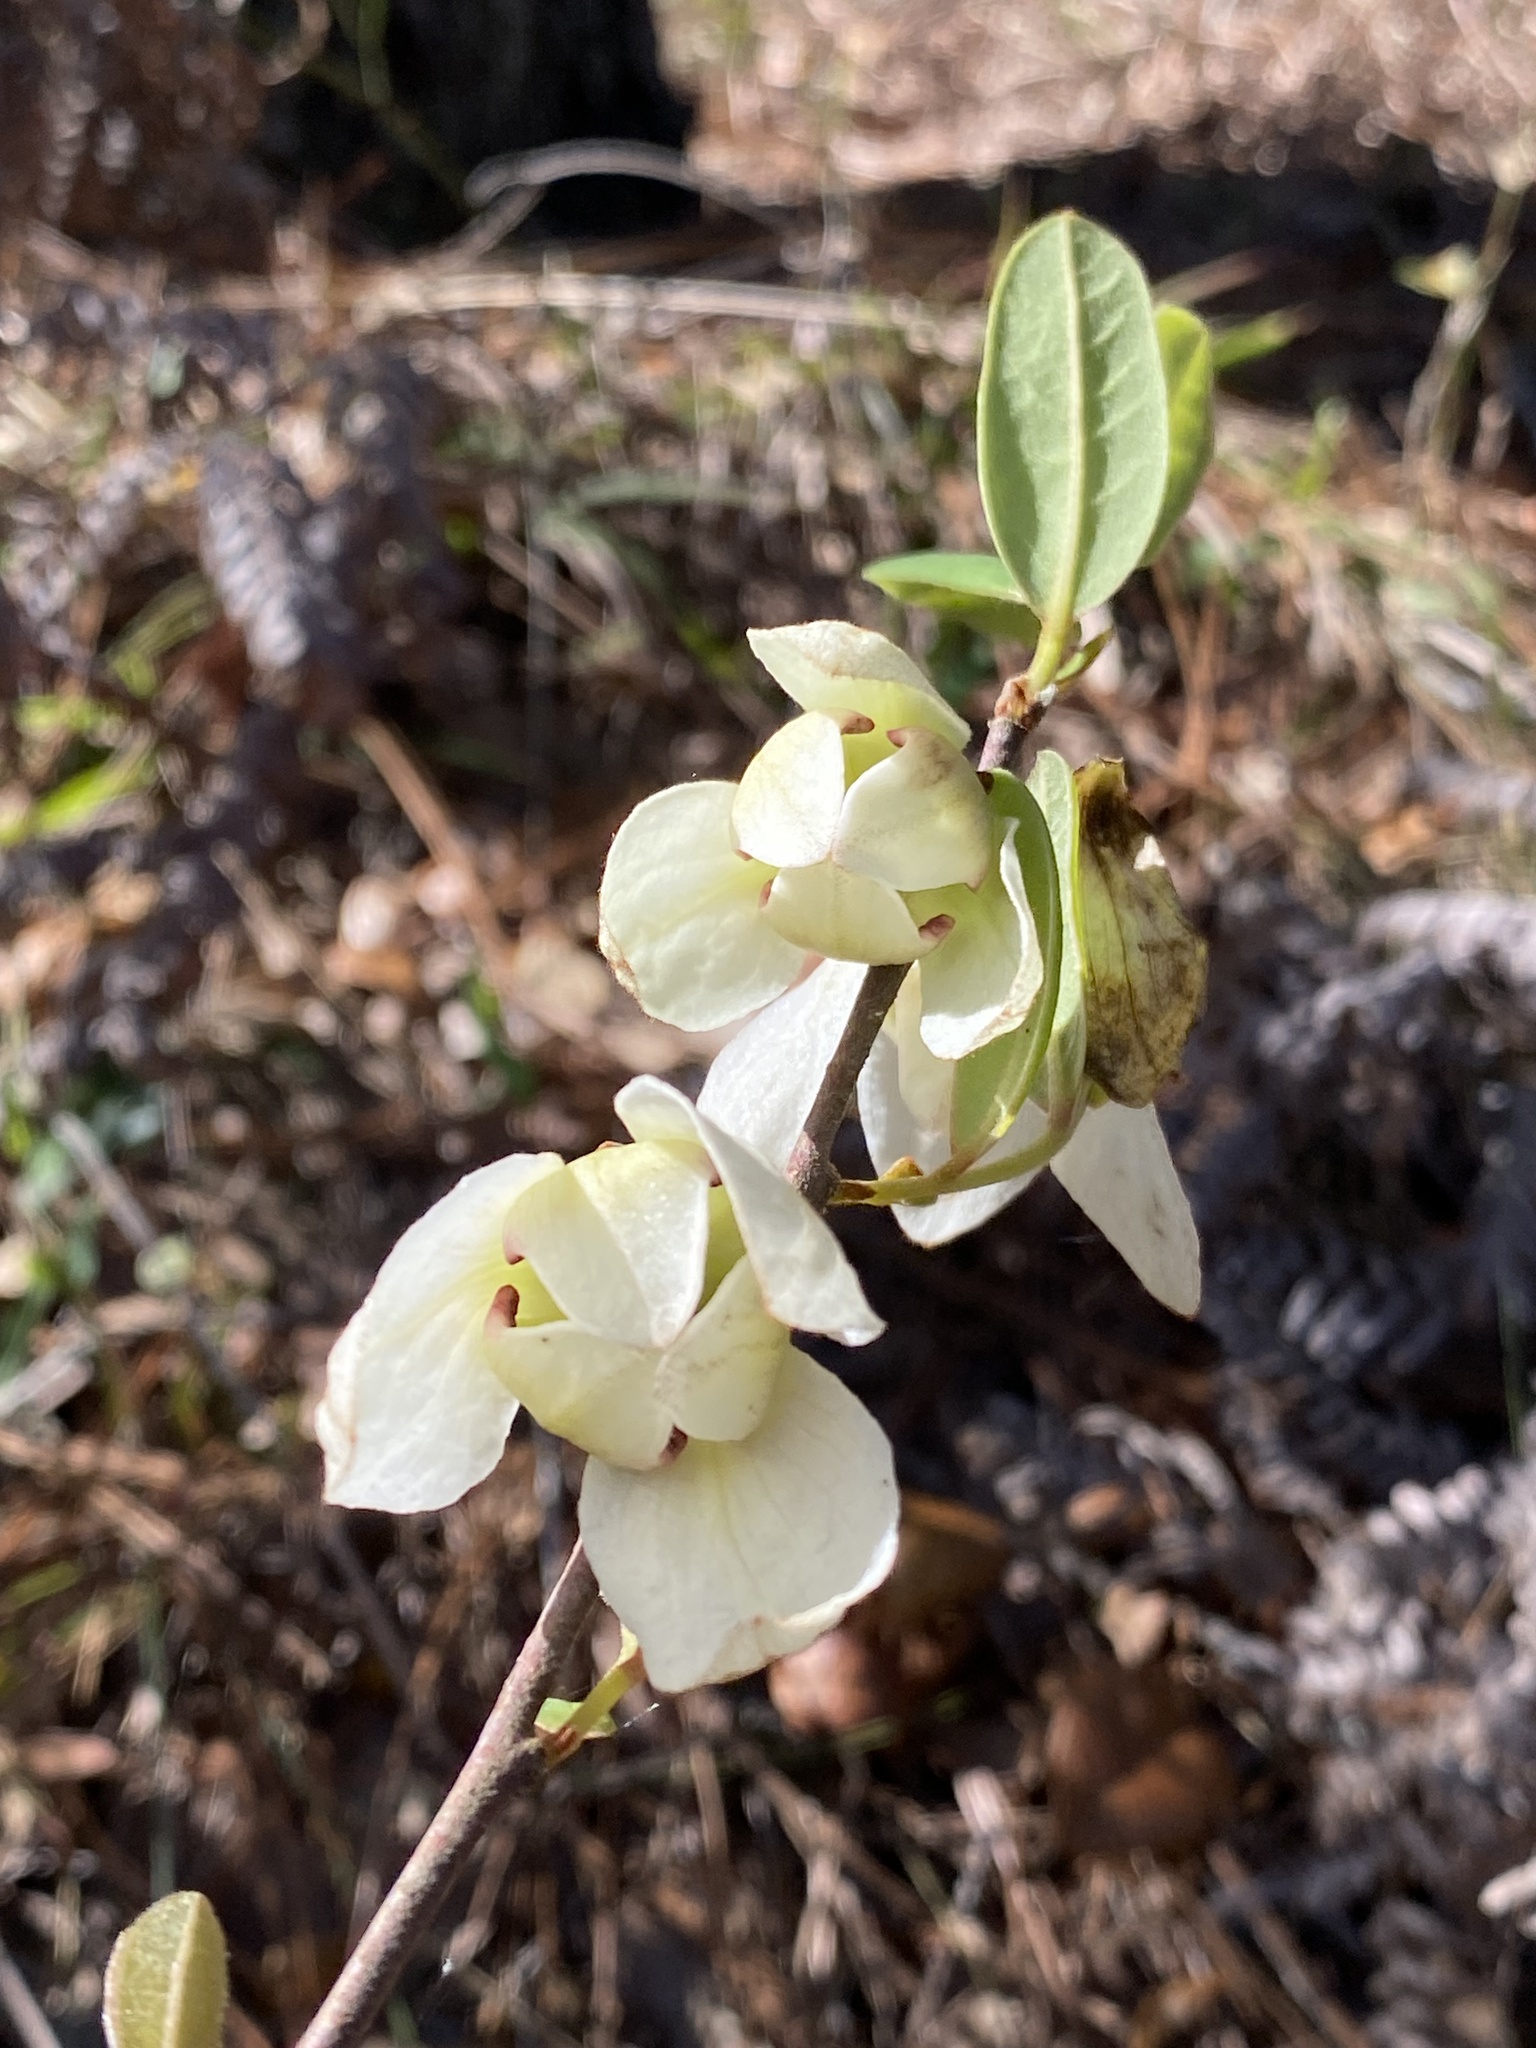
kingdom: Plantae
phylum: Tracheophyta
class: Magnoliopsida
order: Magnoliales
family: Annonaceae
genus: Asimina
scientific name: Asimina reticulata
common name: Flag pawpaw
